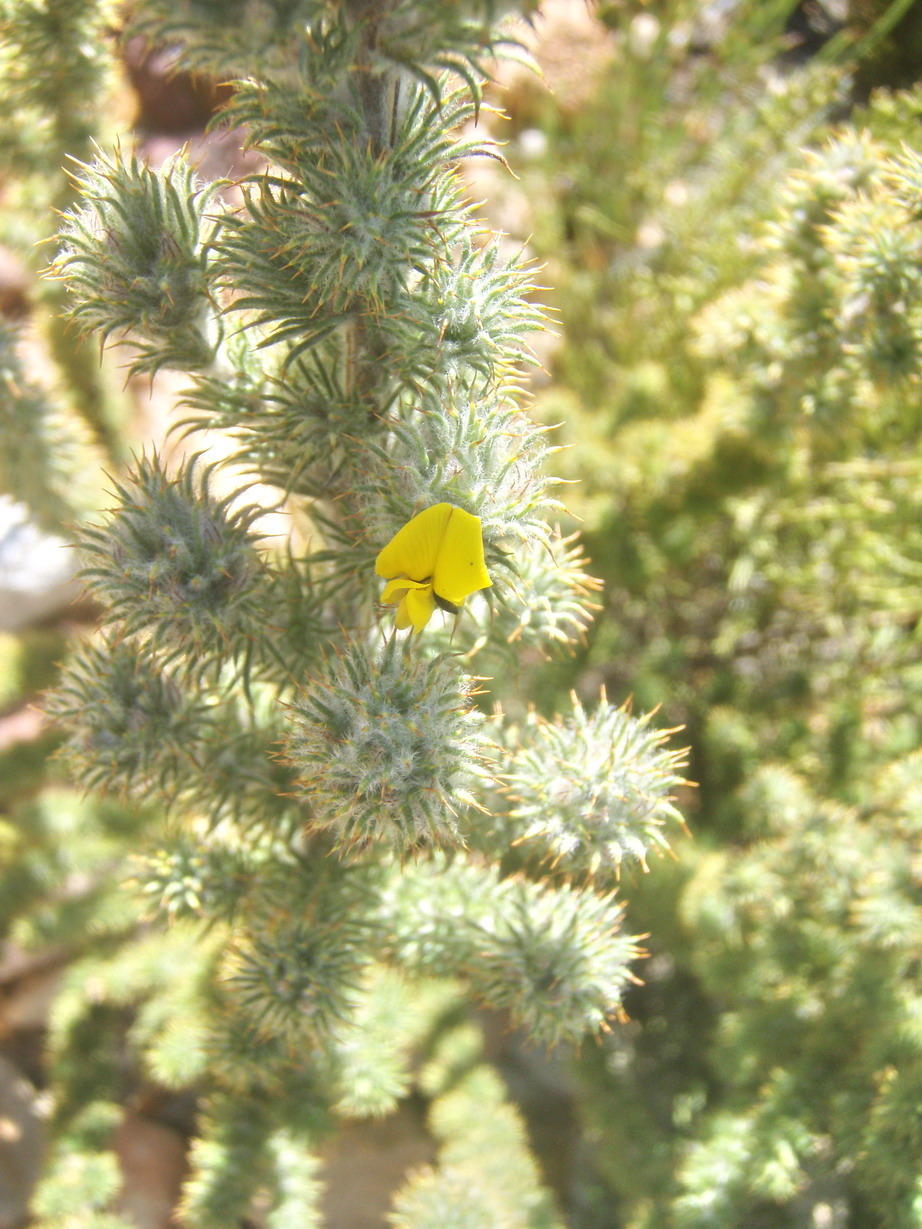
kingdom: Plantae
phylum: Tracheophyta
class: Magnoliopsida
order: Fabales
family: Fabaceae
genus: Aspalathus
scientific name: Aspalathus shawii
